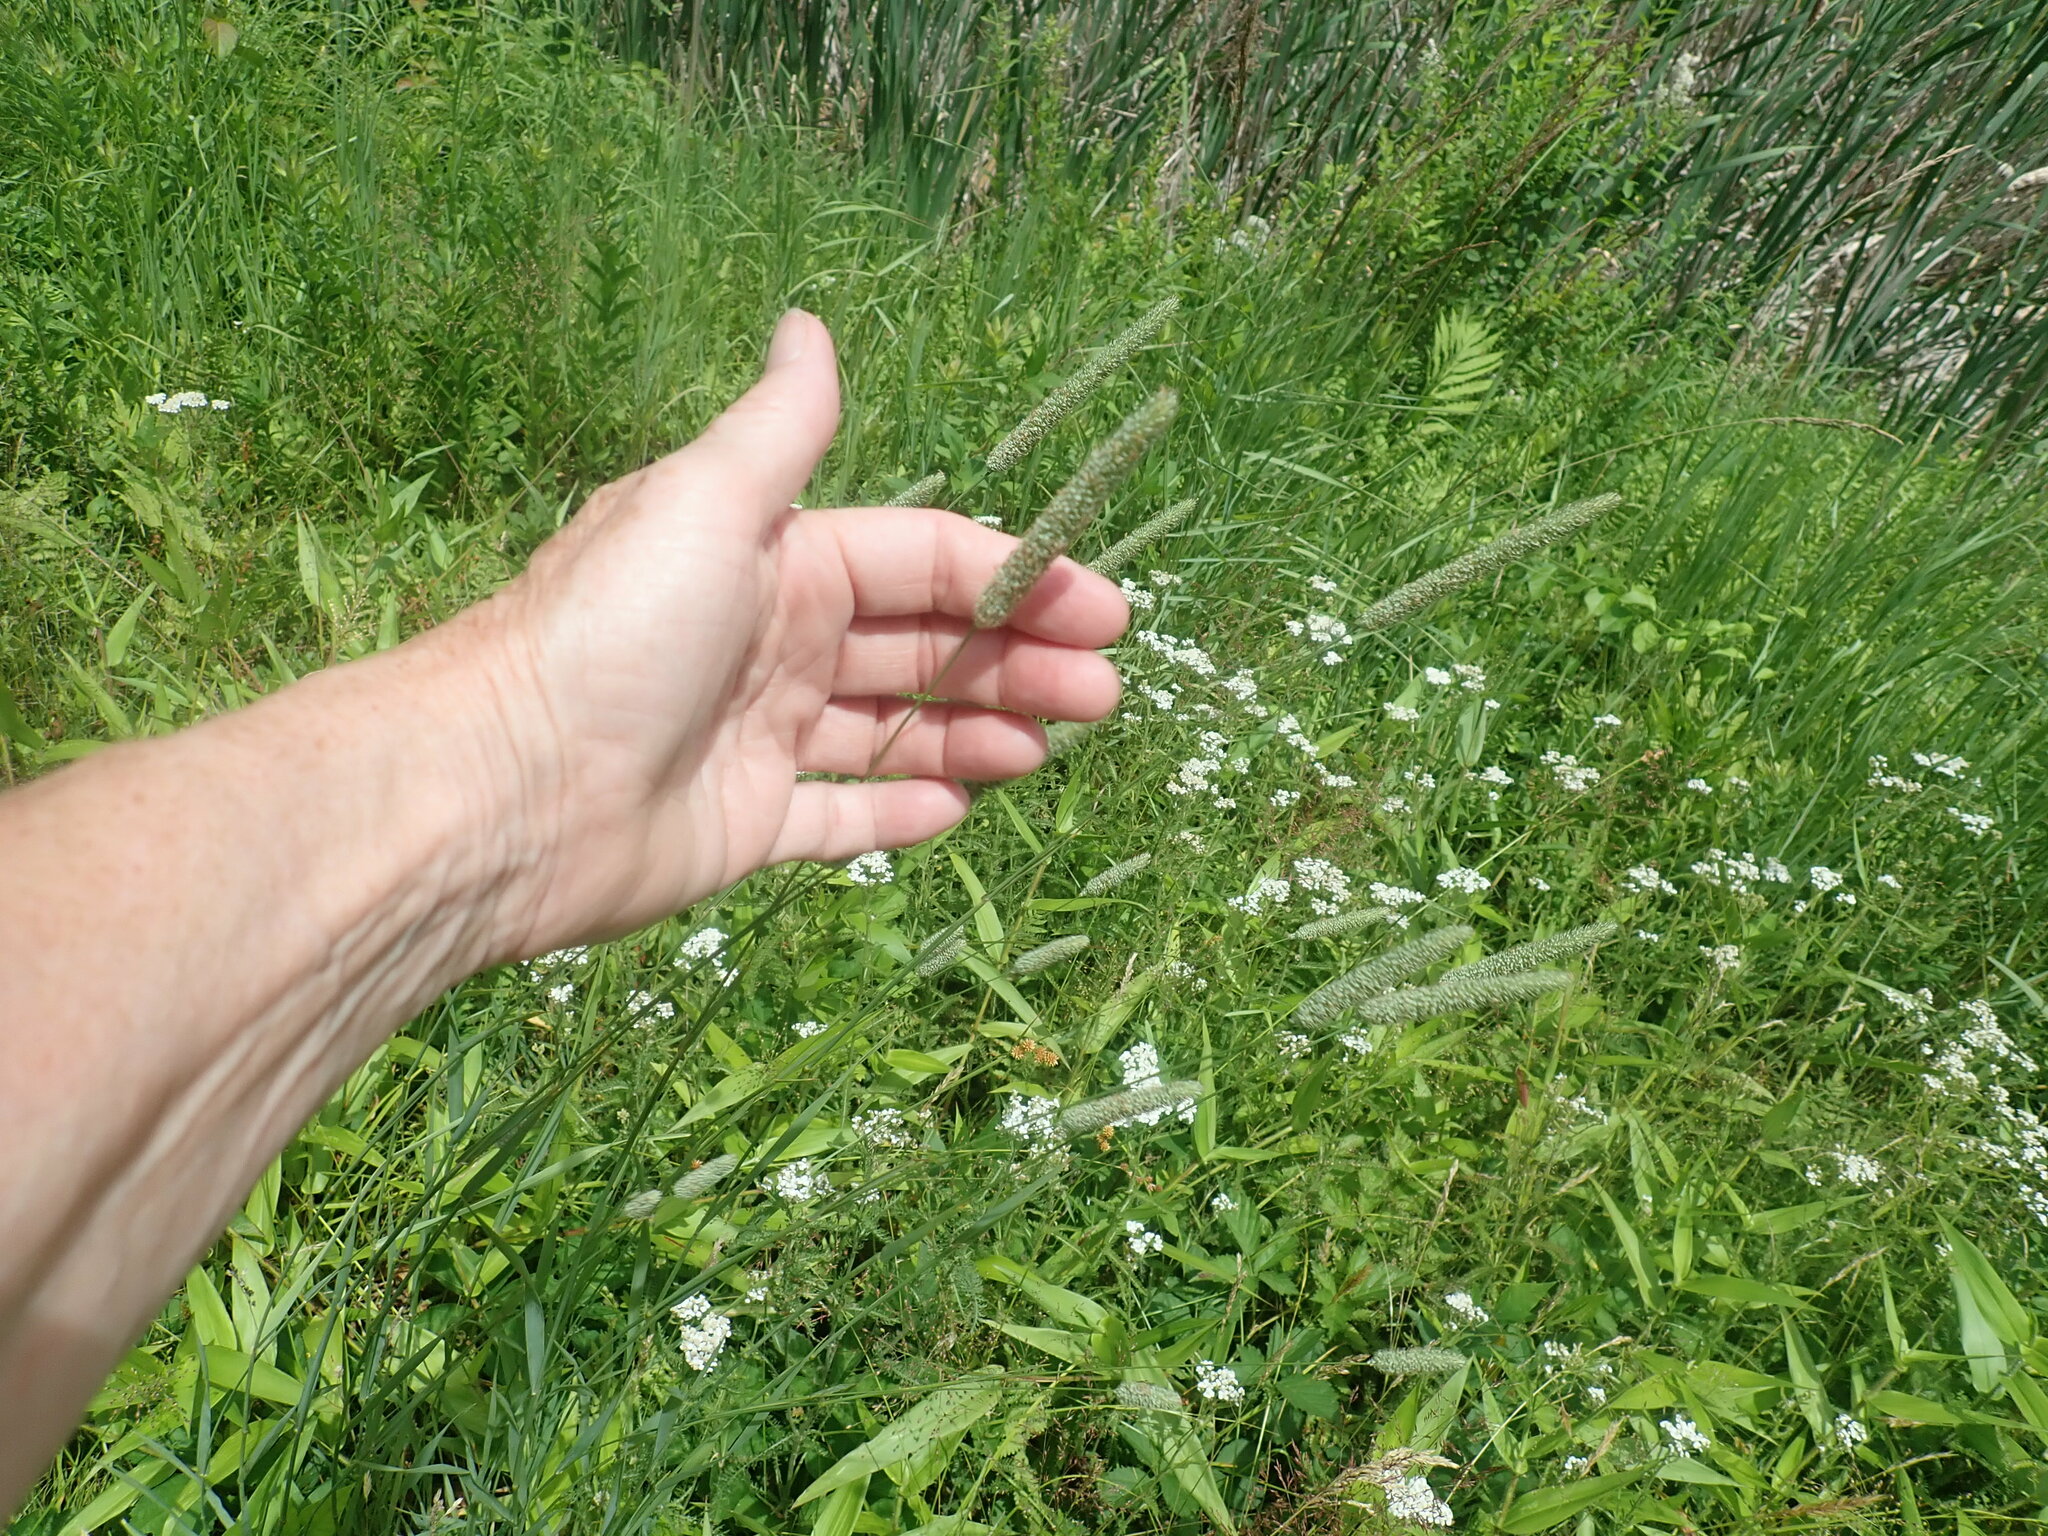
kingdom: Plantae
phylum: Tracheophyta
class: Liliopsida
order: Poales
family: Poaceae
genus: Phleum
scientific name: Phleum pratense
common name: Timothy grass
